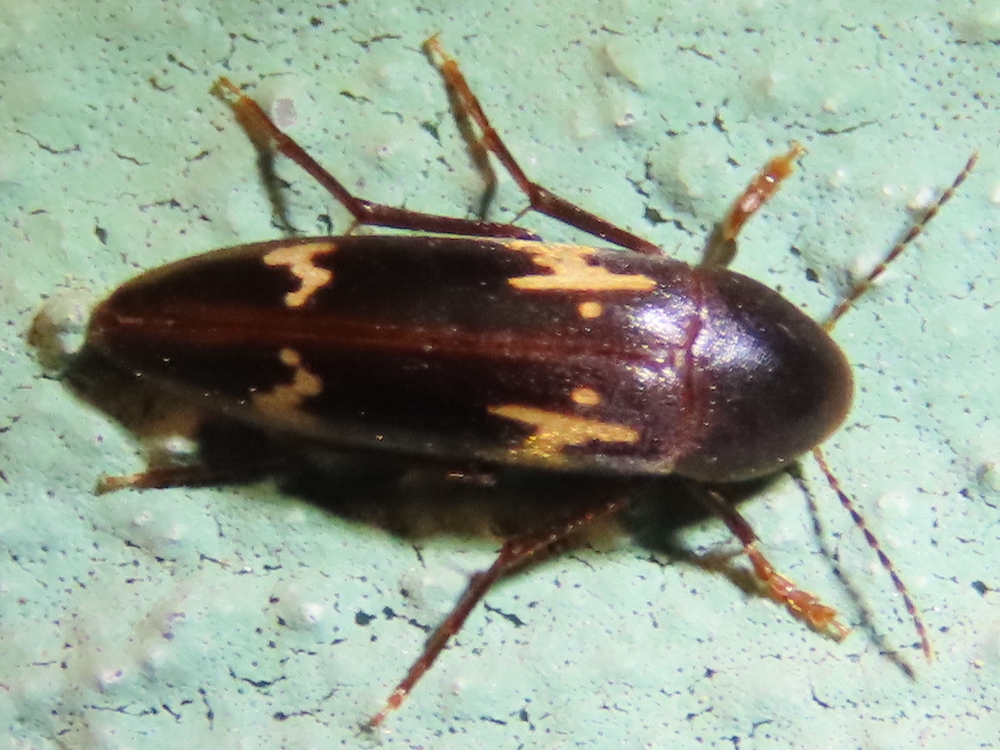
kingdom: Animalia
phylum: Arthropoda
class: Insecta
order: Coleoptera
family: Melandryidae
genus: Dircaea
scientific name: Dircaea liturata
